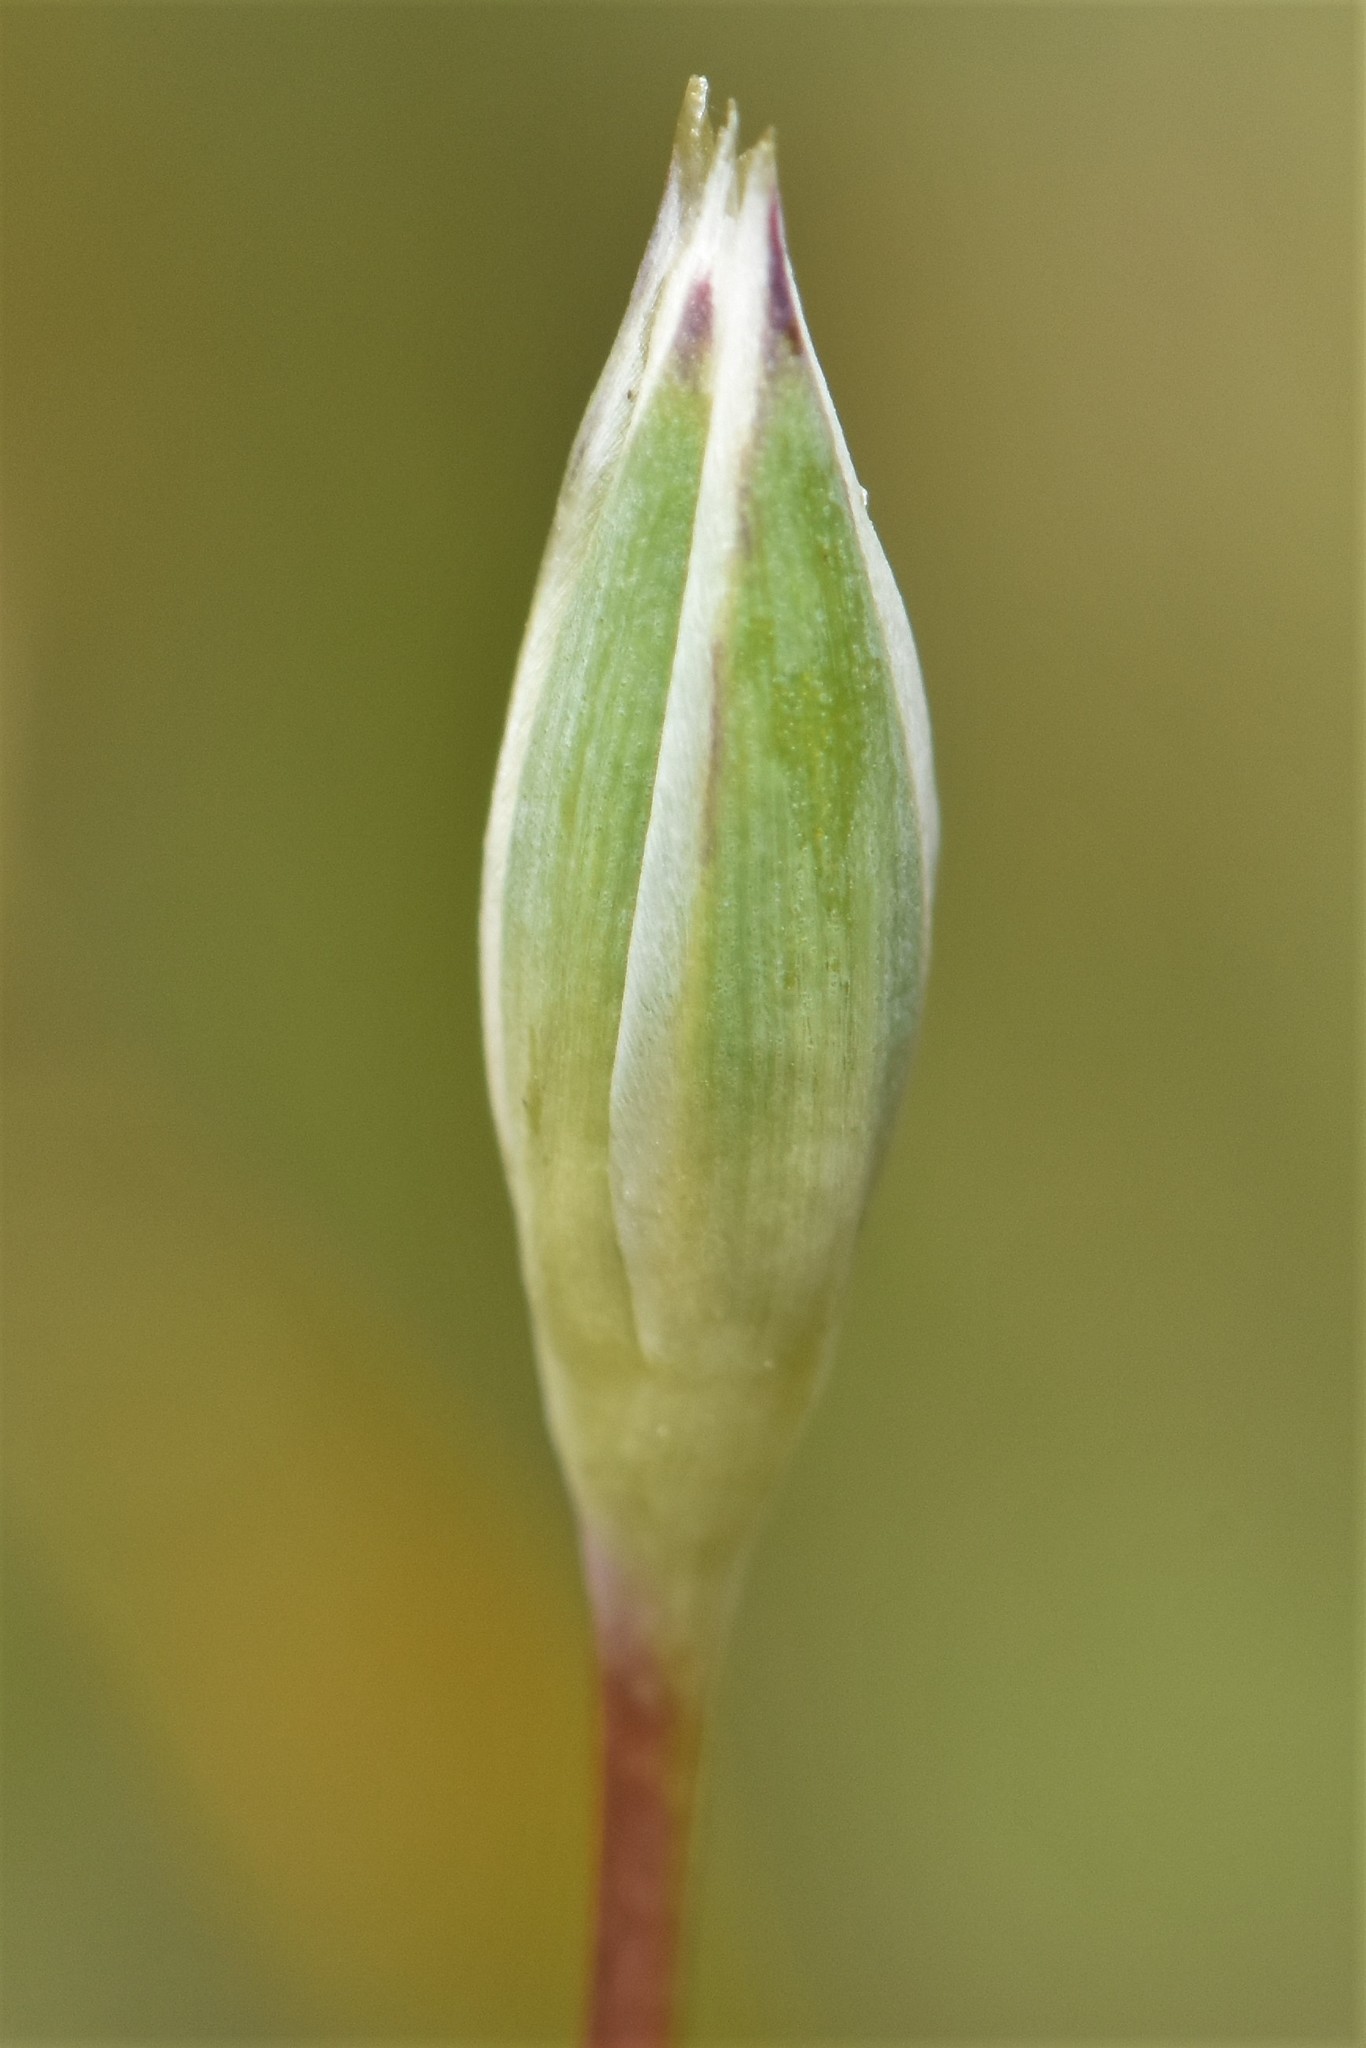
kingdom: Plantae
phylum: Tracheophyta
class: Magnoliopsida
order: Caryophyllales
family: Caryophyllaceae
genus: Moenchia
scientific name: Moenchia erecta
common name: Upright chickweed
